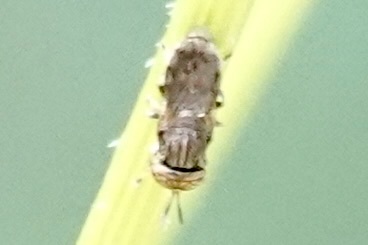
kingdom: Animalia
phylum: Arthropoda
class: Insecta
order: Diptera
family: Syrphidae
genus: Orthonevra
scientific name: Orthonevra nitida
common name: Wavy mucksucker
